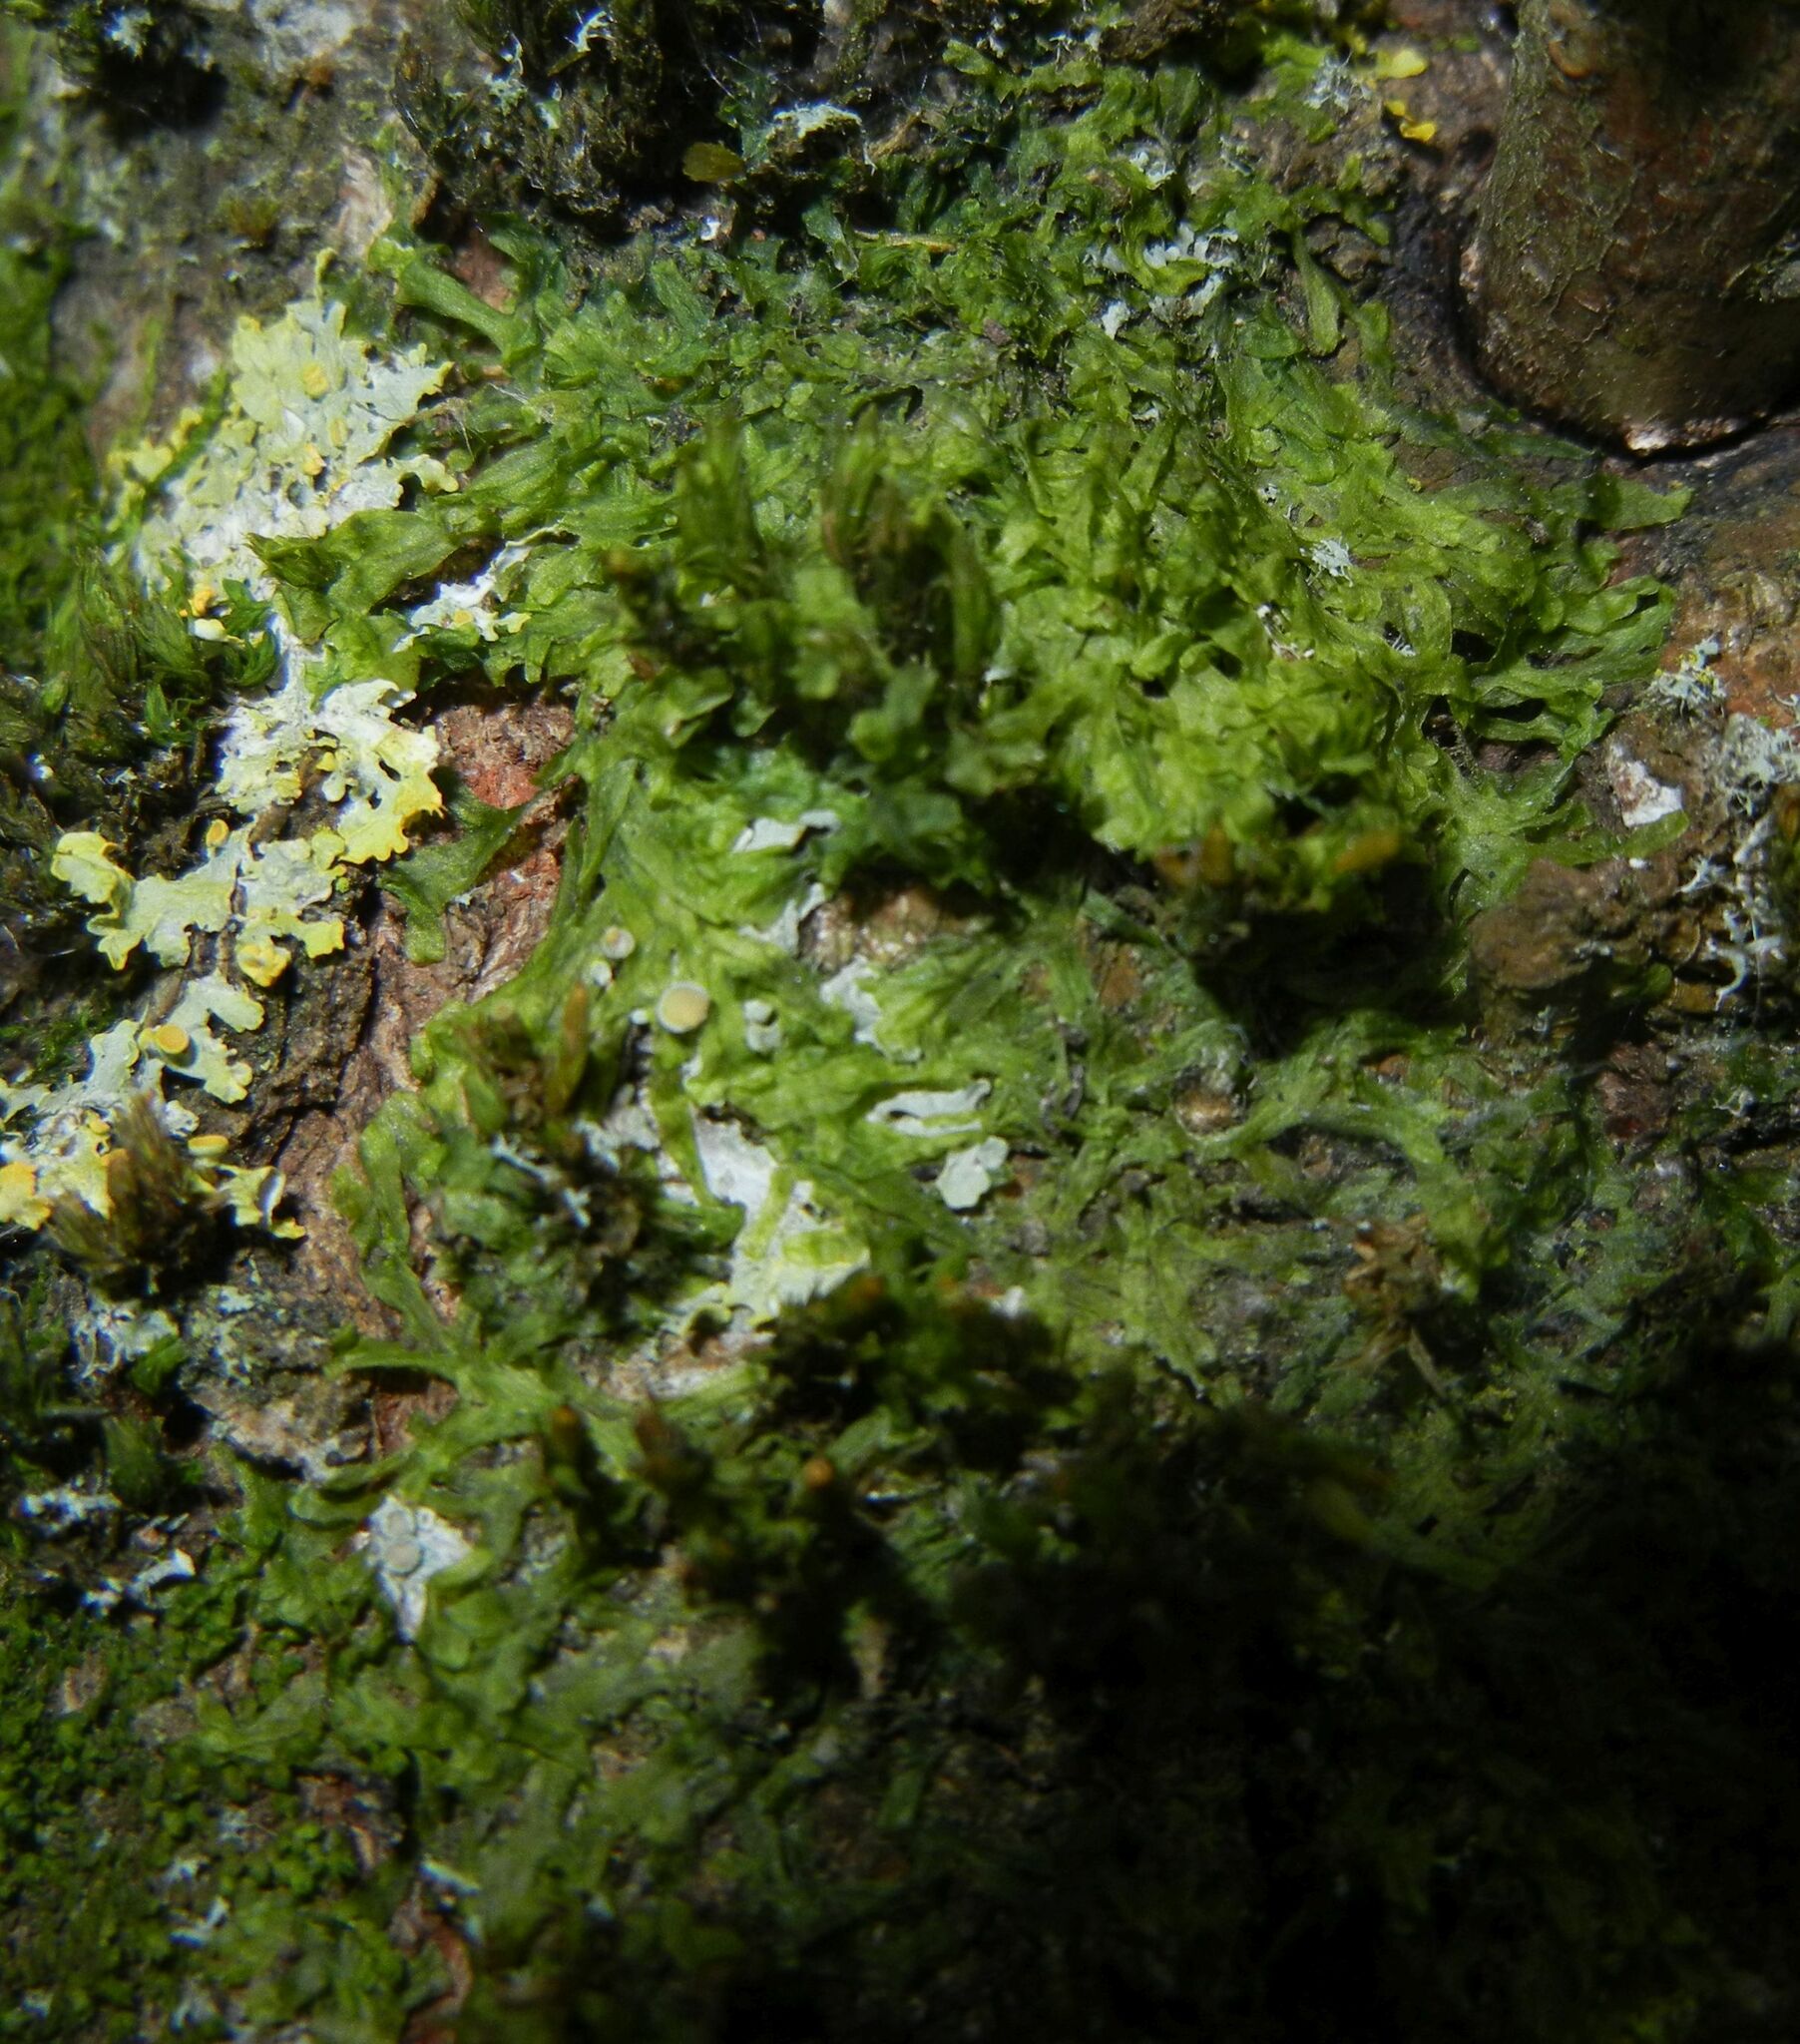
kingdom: Plantae
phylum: Marchantiophyta
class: Jungermanniopsida
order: Metzgeriales
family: Metzgeriaceae
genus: Metzgeria
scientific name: Metzgeria furcata
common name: Forked veilwort
